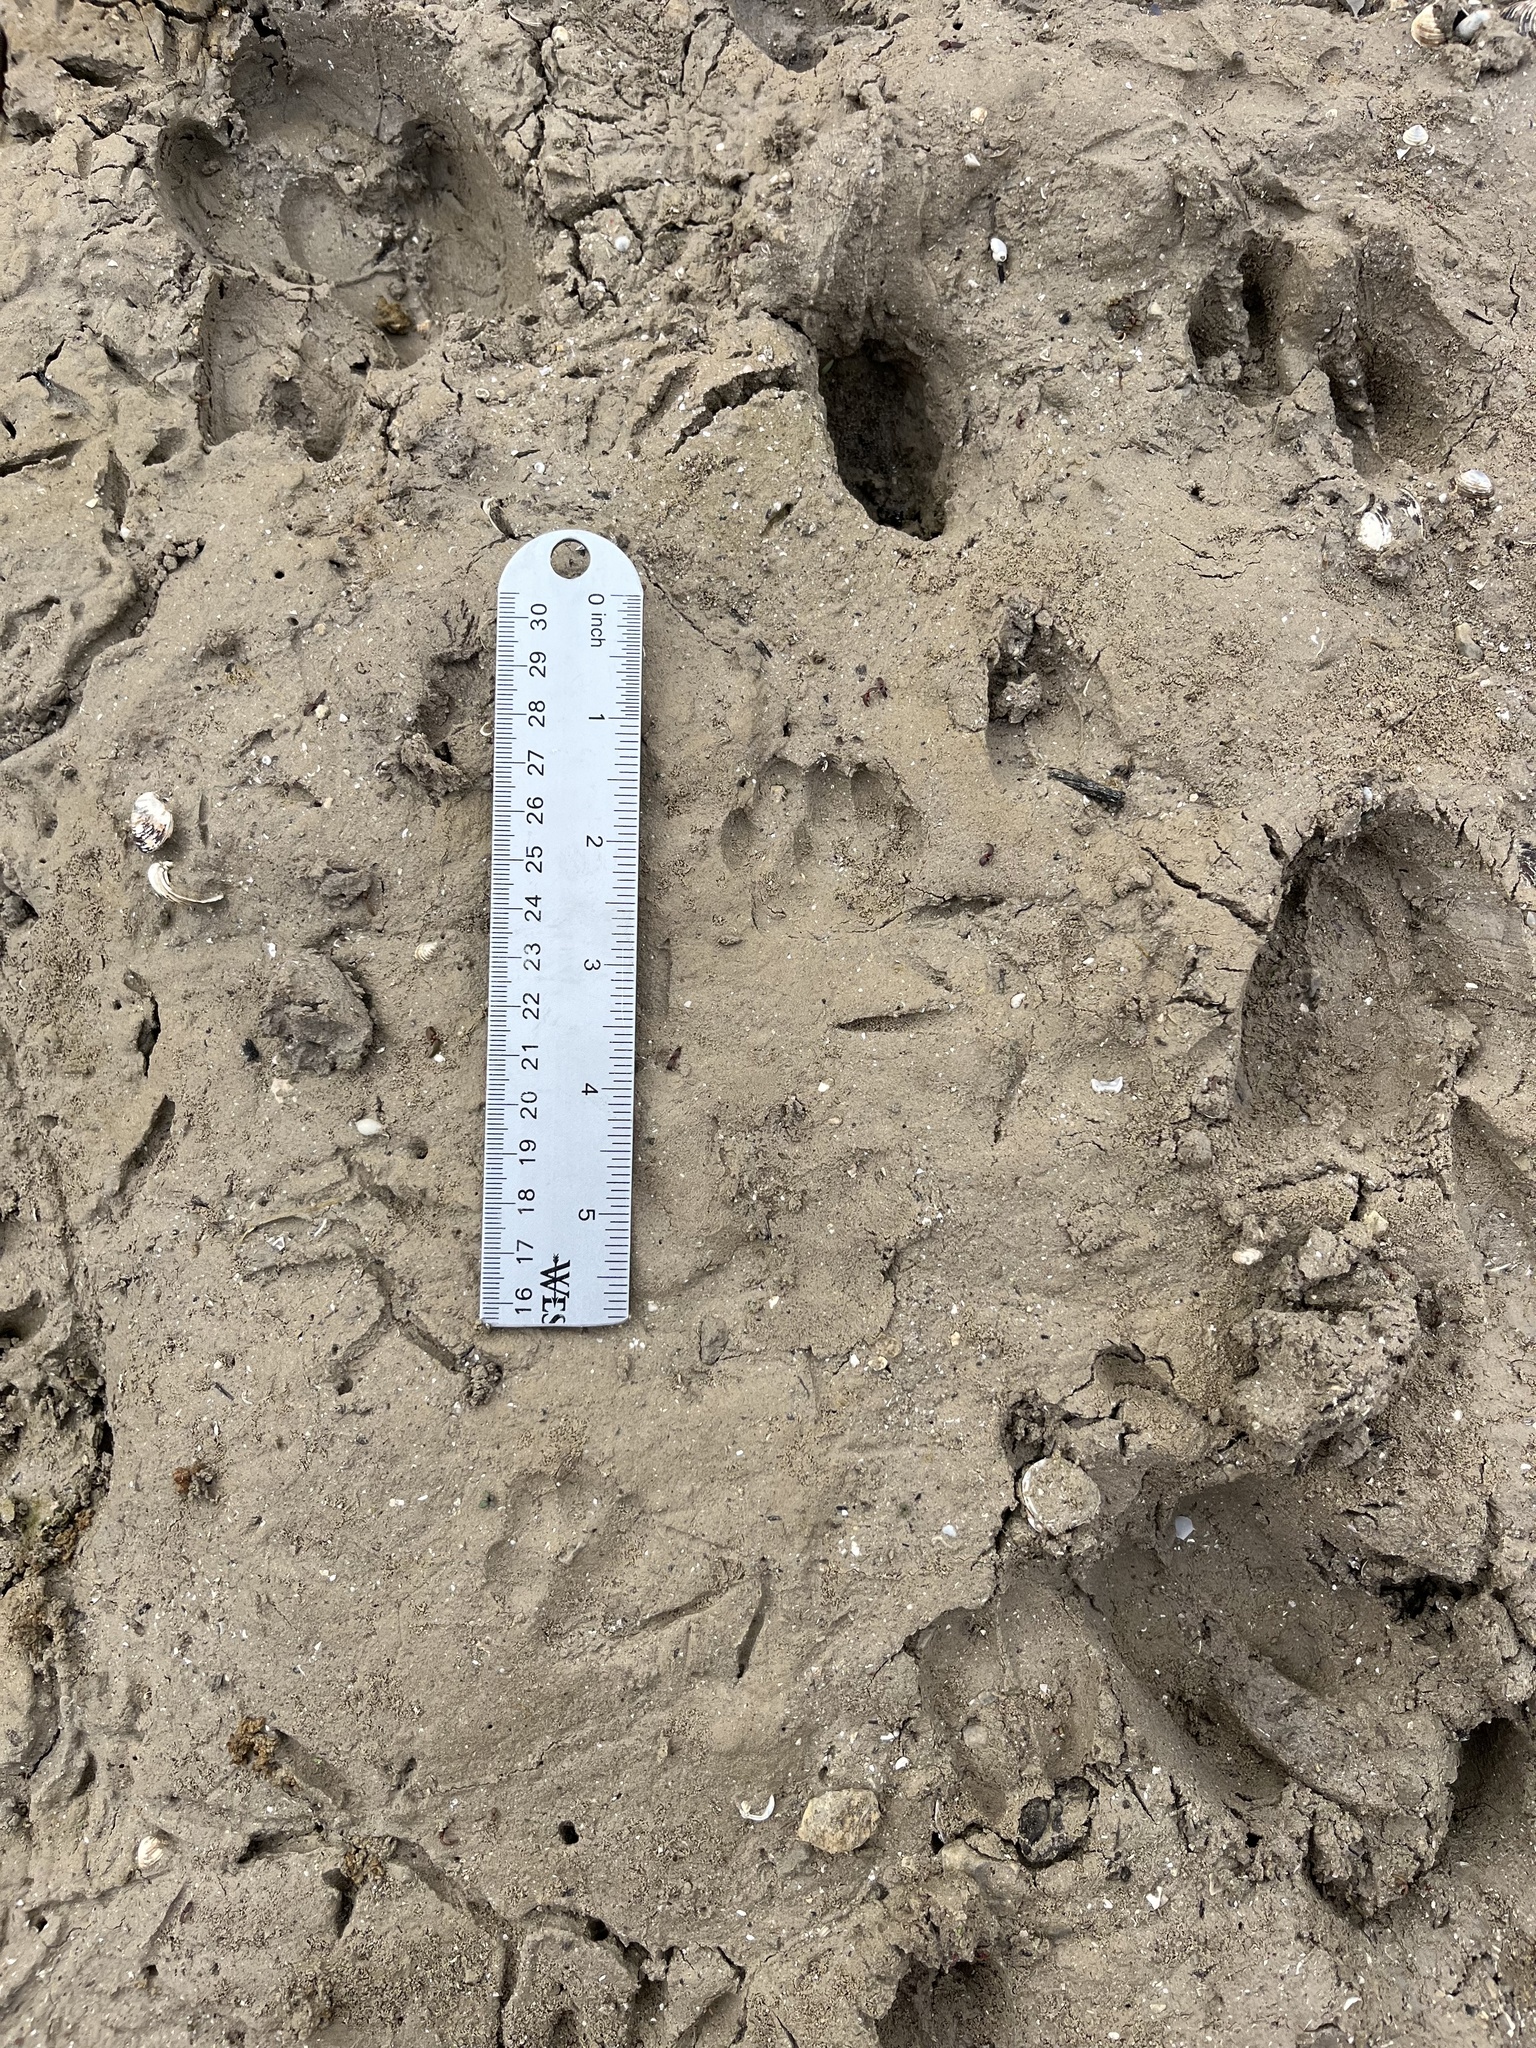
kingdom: Animalia
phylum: Chordata
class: Mammalia
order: Carnivora
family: Canidae
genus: Urocyon
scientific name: Urocyon cinereoargenteus
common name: Gray fox
